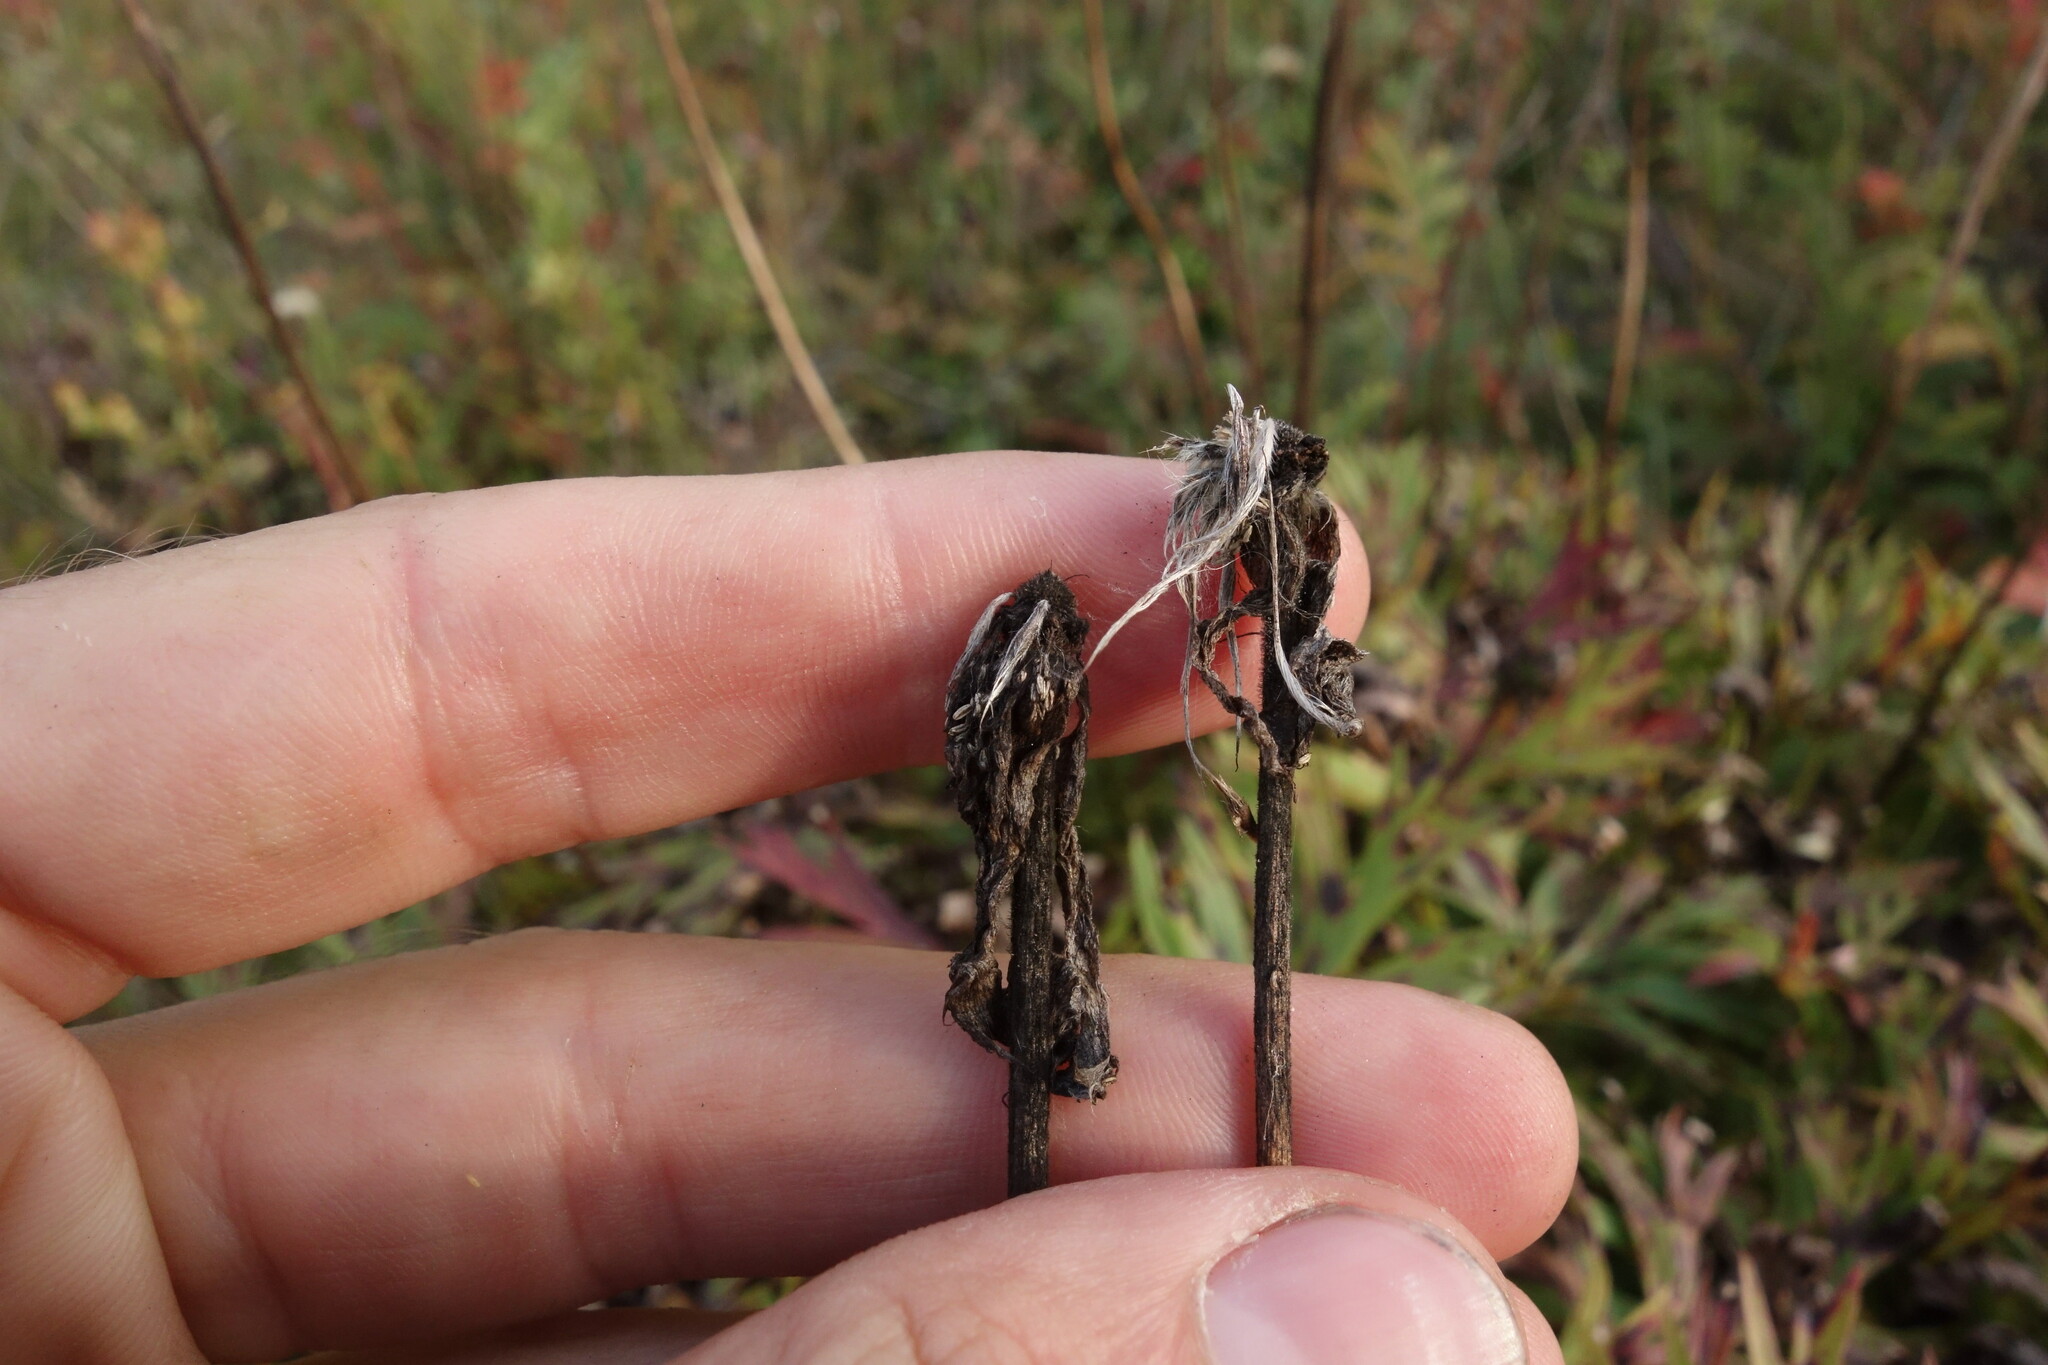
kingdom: Plantae
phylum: Tracheophyta
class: Magnoliopsida
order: Ranunculales
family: Ranunculaceae
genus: Pulsatilla
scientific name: Pulsatilla patens
